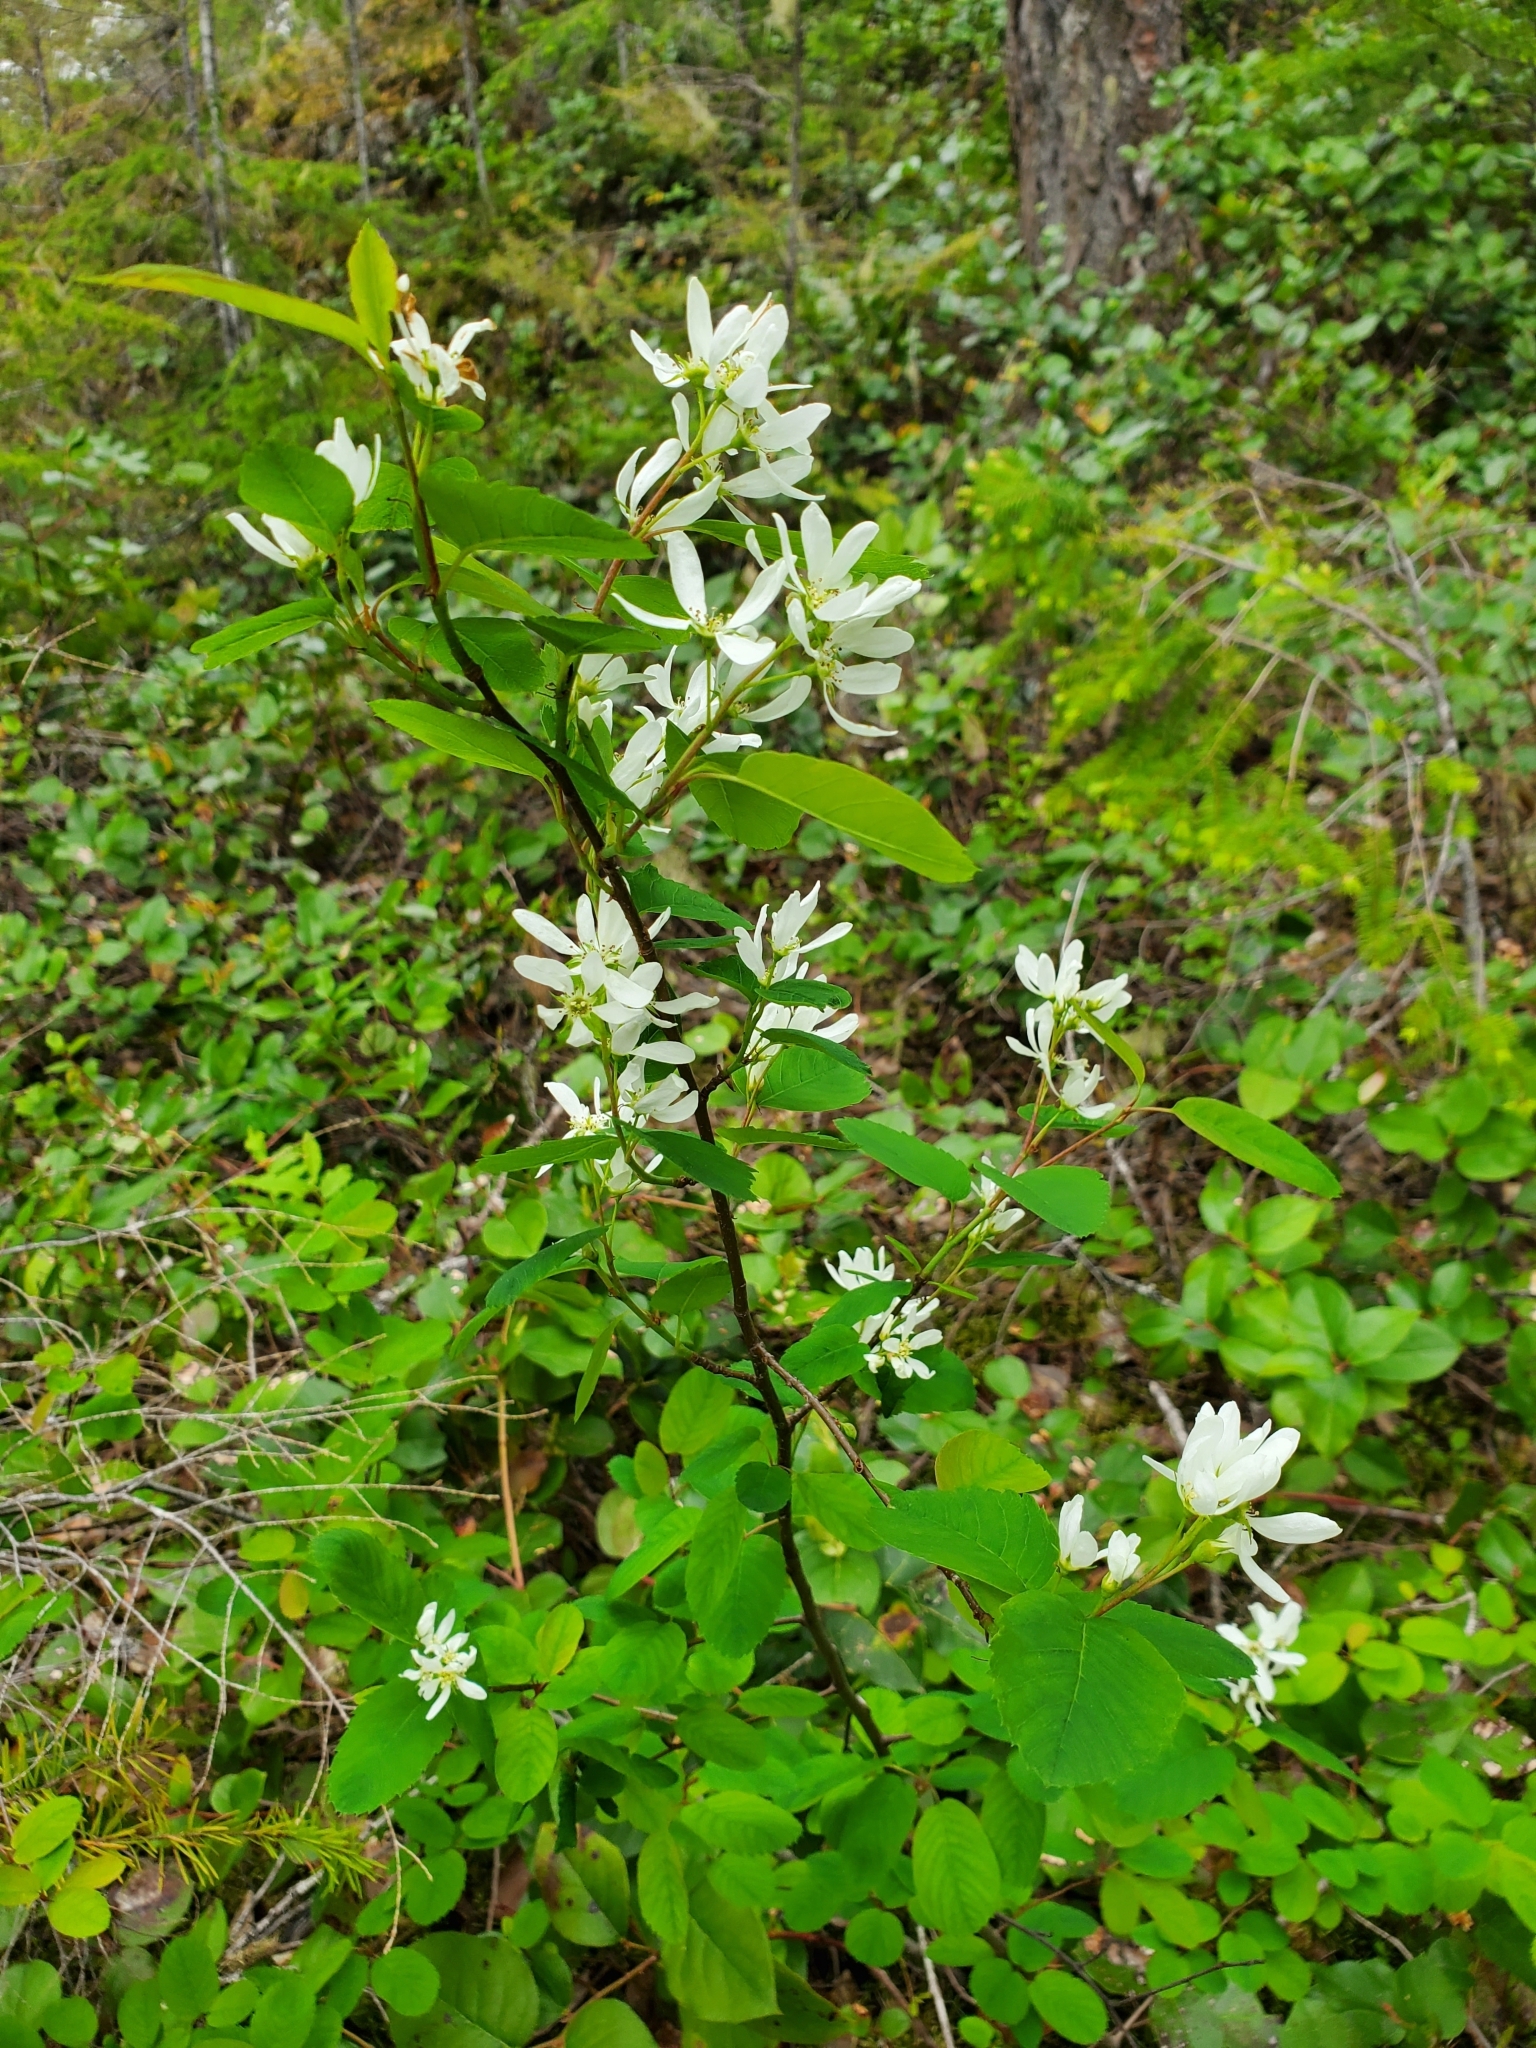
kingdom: Plantae
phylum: Tracheophyta
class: Magnoliopsida
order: Rosales
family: Rosaceae
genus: Amelanchier
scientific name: Amelanchier alnifolia
